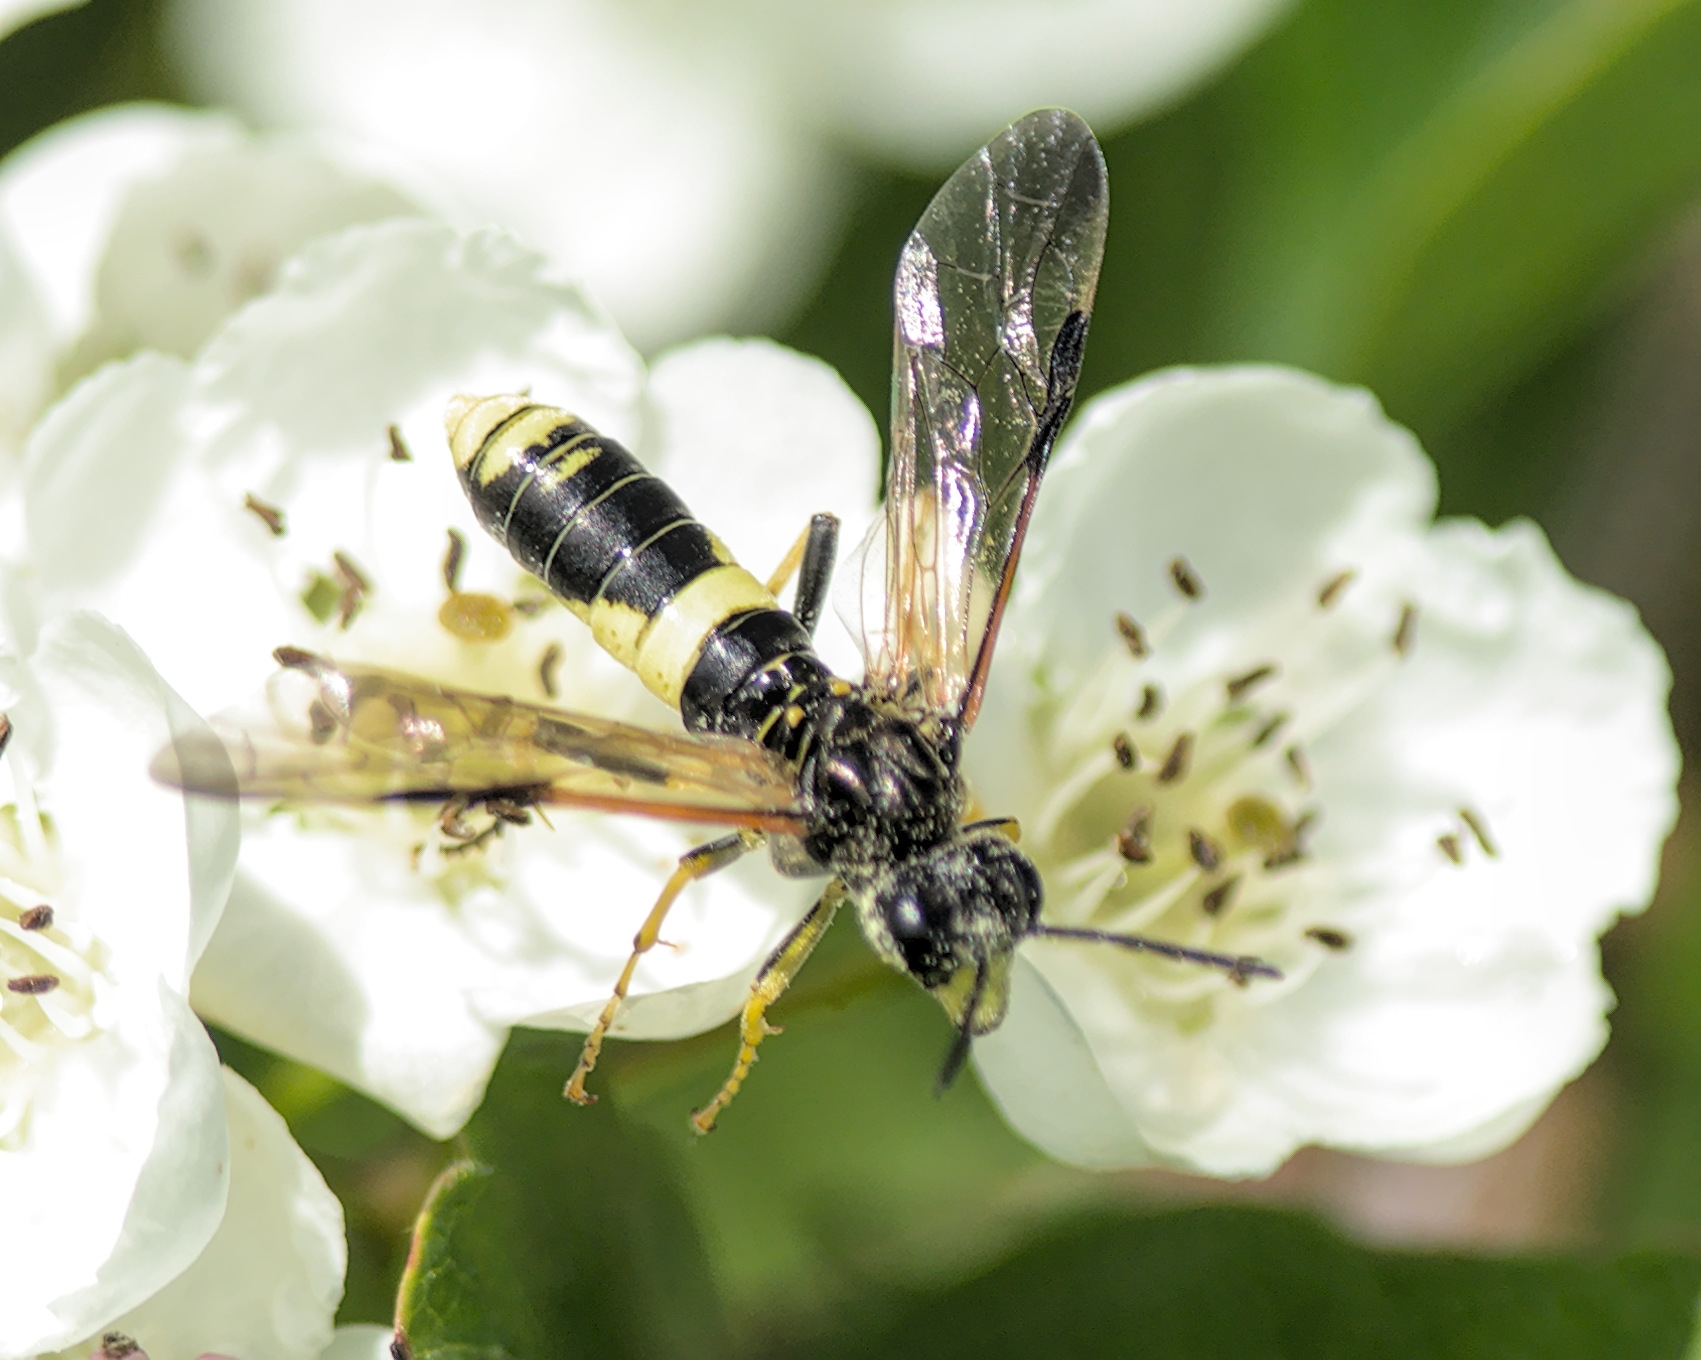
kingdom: Animalia
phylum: Arthropoda
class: Insecta
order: Hymenoptera
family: Tenthredinidae
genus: Tenthredo
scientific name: Tenthredo temula
